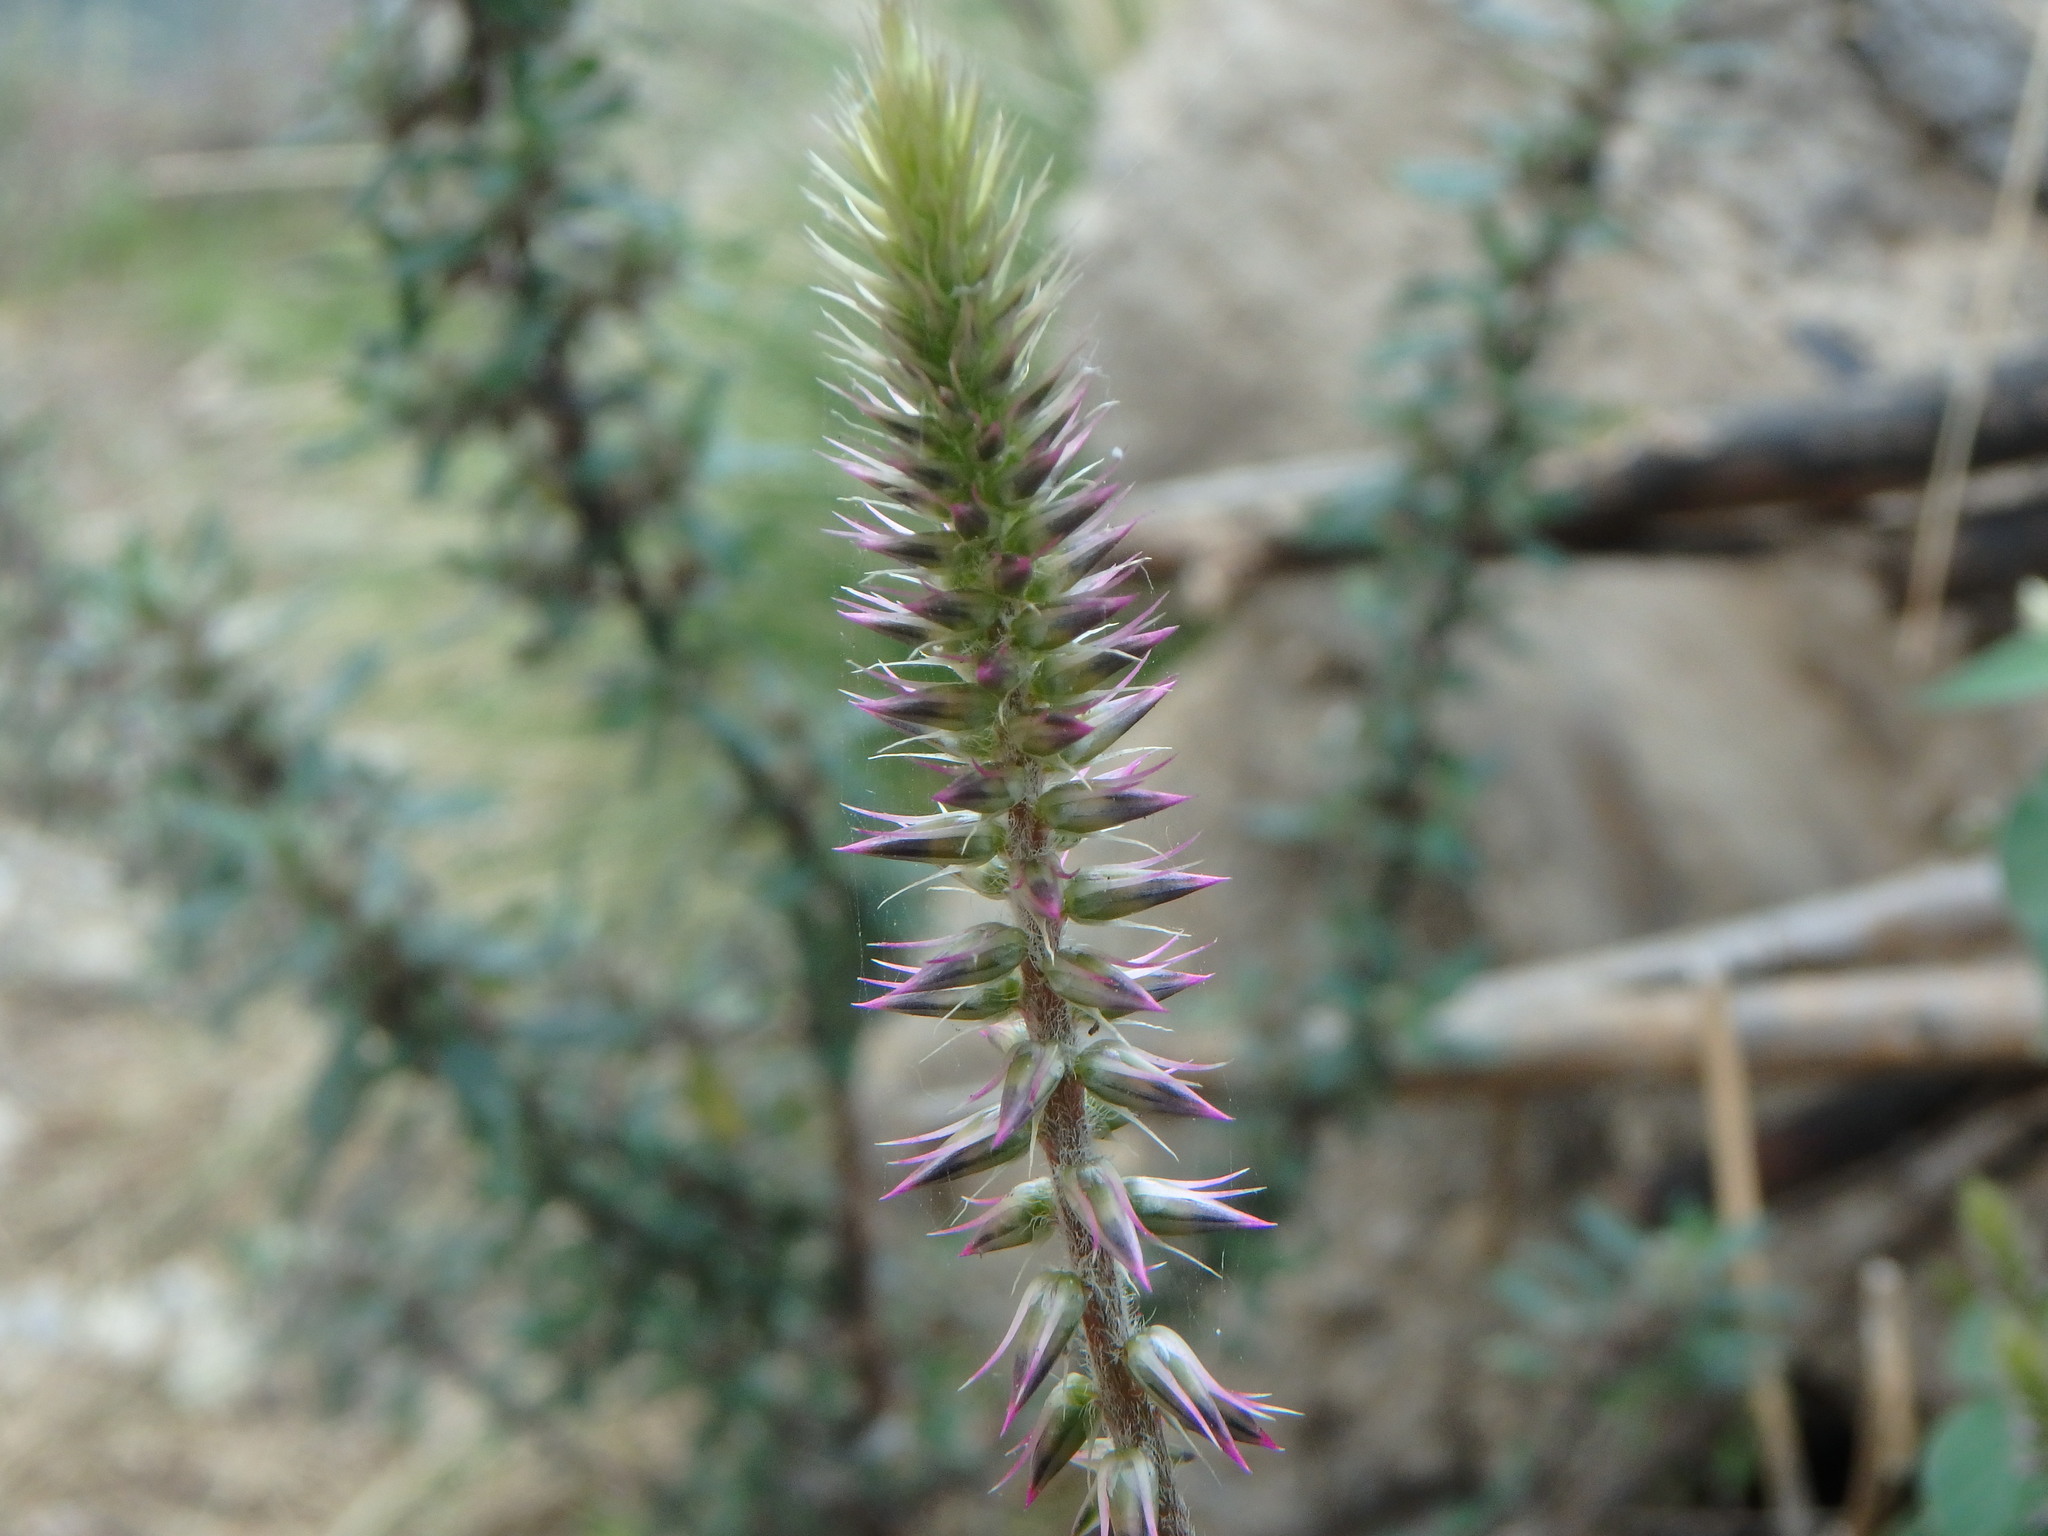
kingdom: Plantae
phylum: Tracheophyta
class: Magnoliopsida
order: Caryophyllales
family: Amaranthaceae
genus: Achyranthes
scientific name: Achyranthes aspera
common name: Devil's horsewhip
